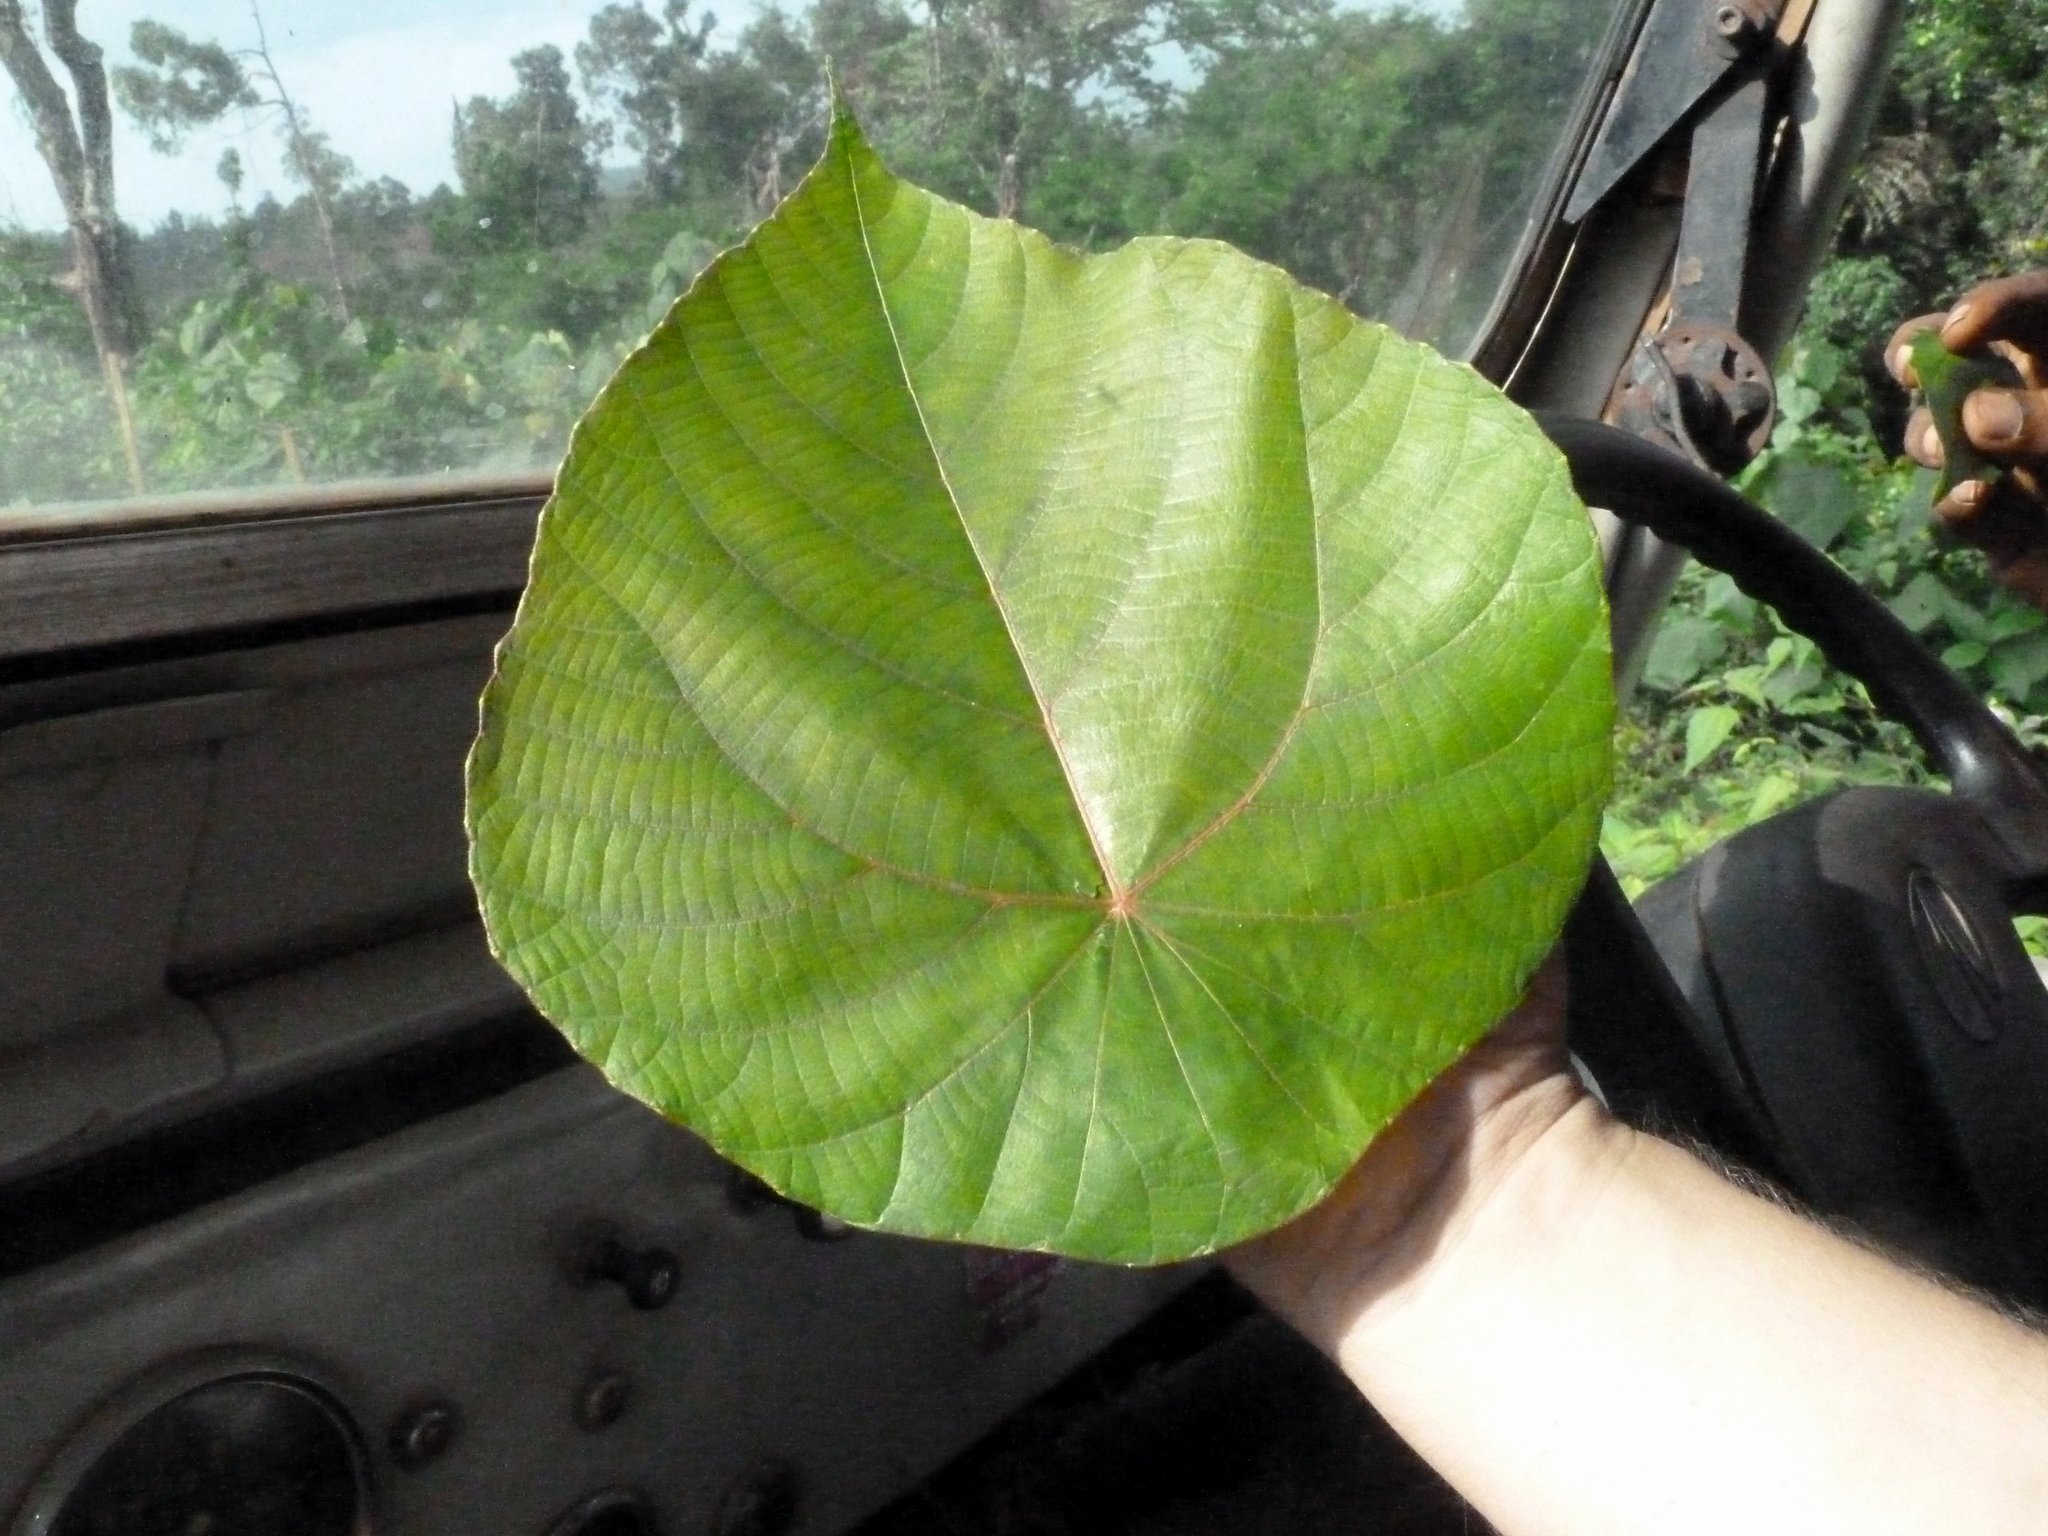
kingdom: Plantae
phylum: Tracheophyta
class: Magnoliopsida
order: Malpighiales
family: Euphorbiaceae
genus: Macaranga
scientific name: Macaranga peltata
